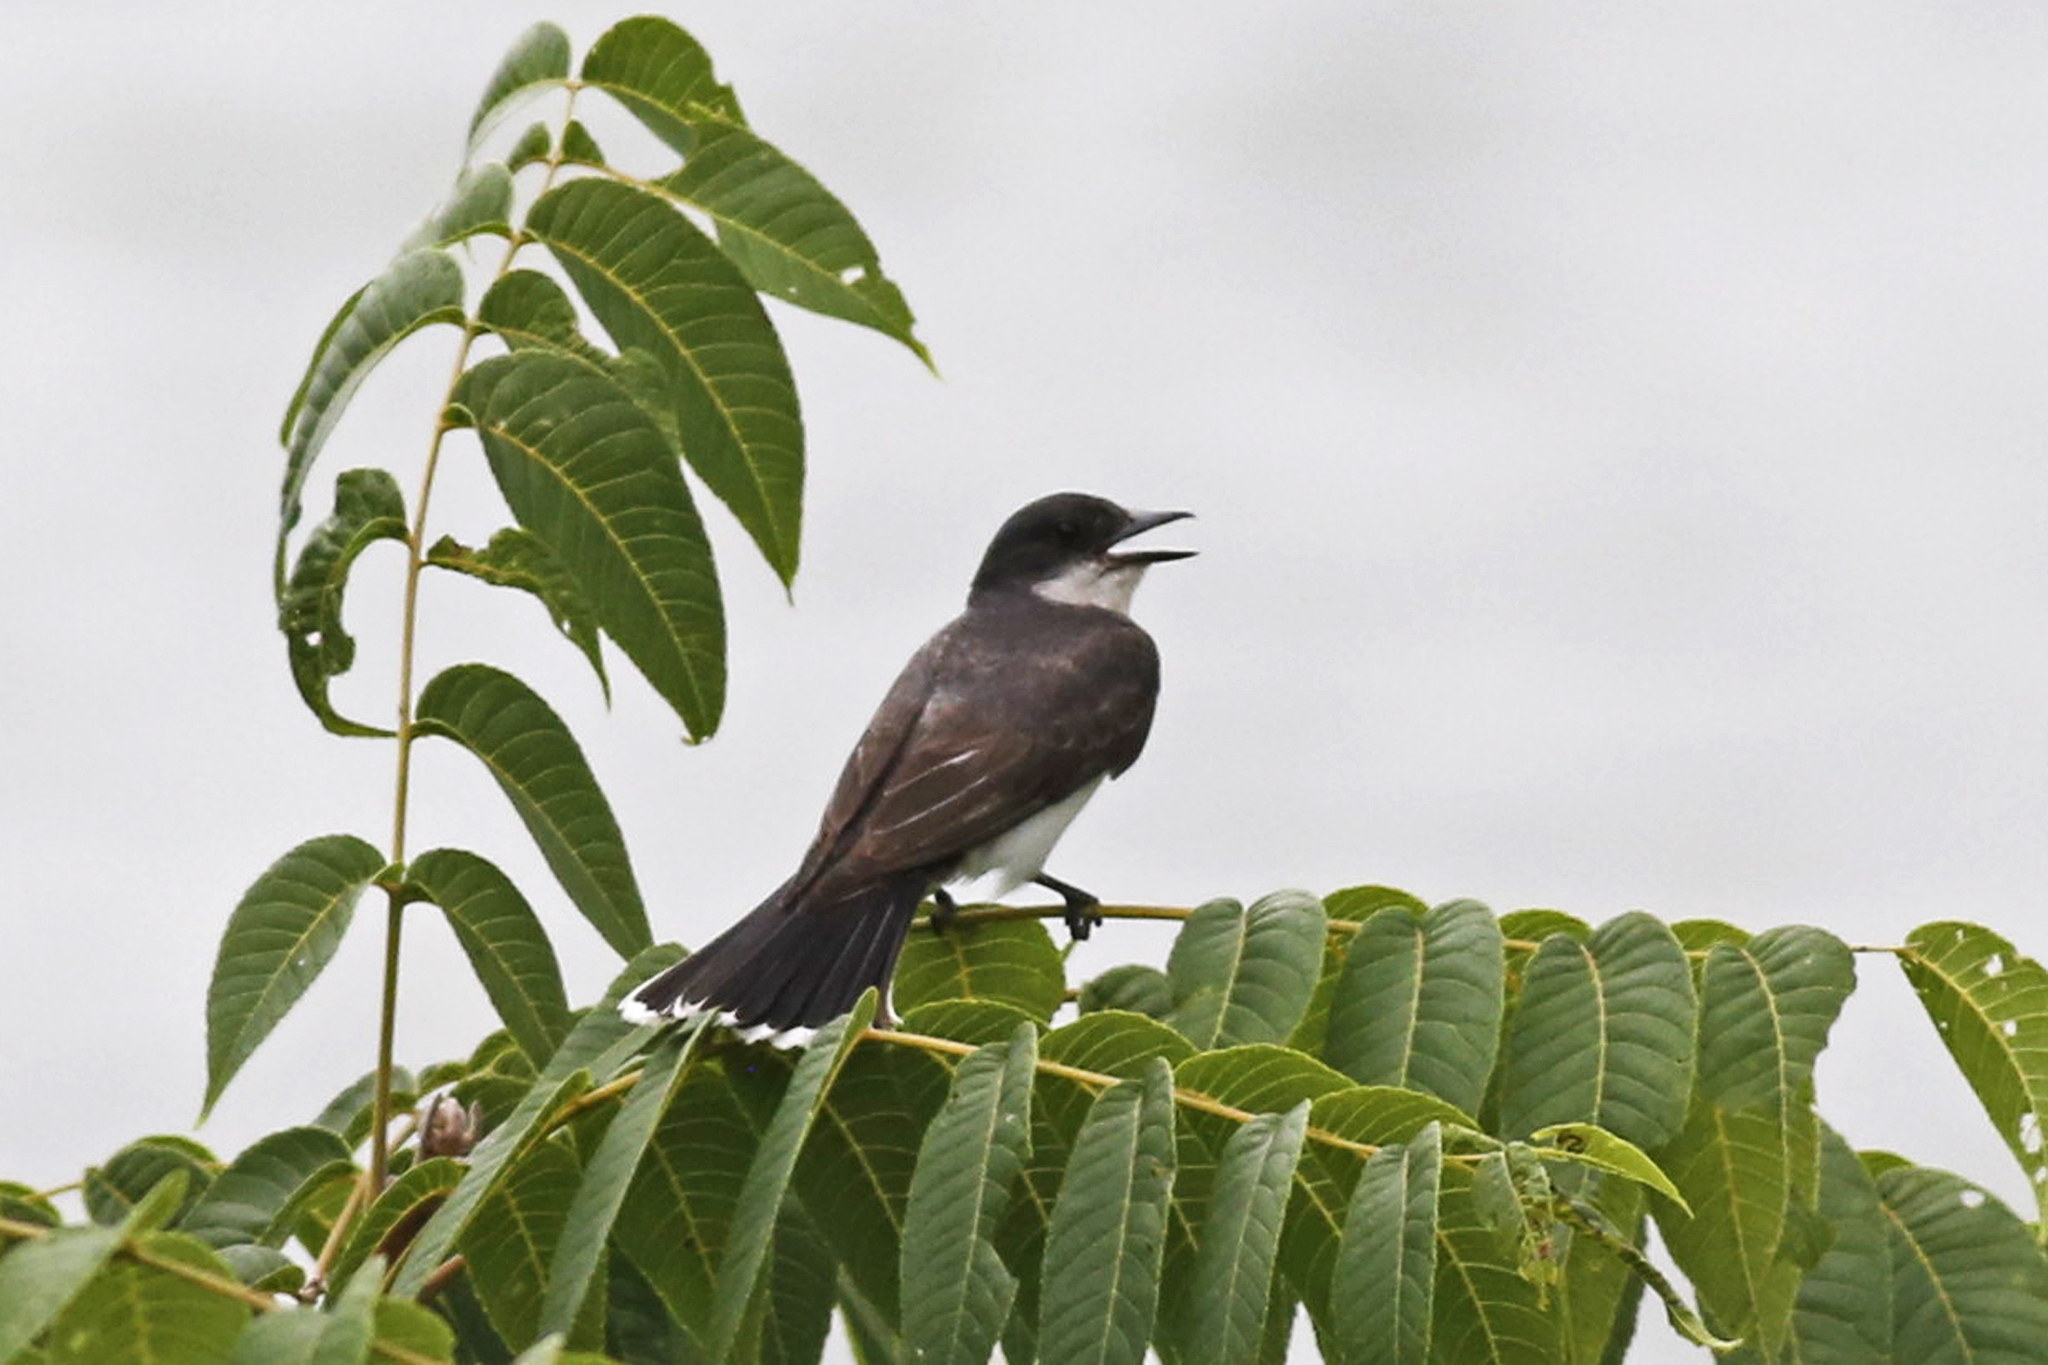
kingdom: Animalia
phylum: Chordata
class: Aves
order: Passeriformes
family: Tyrannidae
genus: Tyrannus
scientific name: Tyrannus tyrannus
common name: Eastern kingbird
